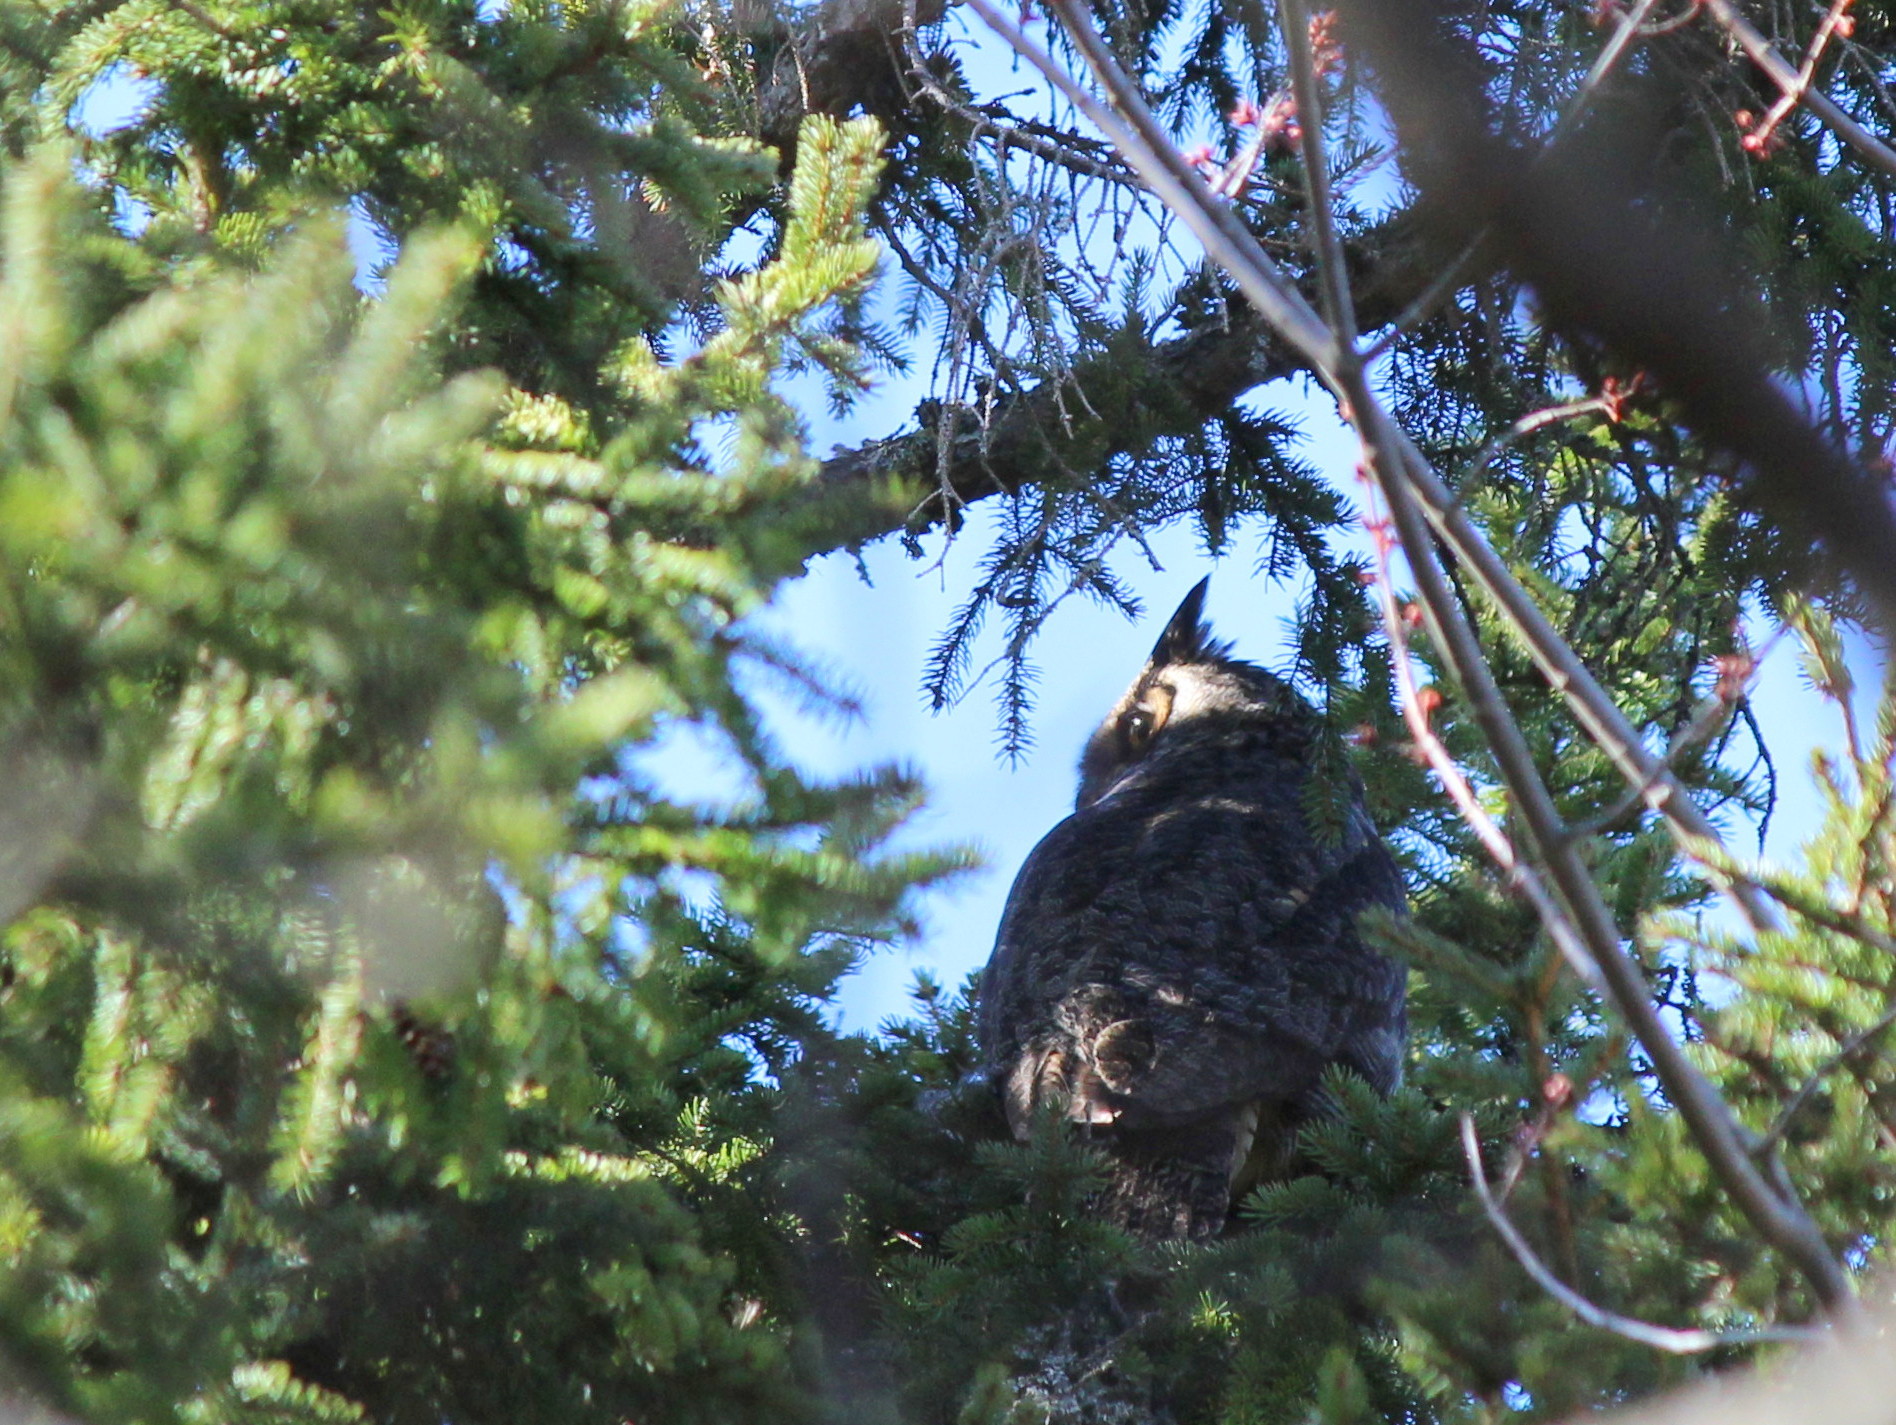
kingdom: Animalia
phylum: Chordata
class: Aves
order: Strigiformes
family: Strigidae
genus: Bubo
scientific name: Bubo virginianus
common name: Great horned owl
